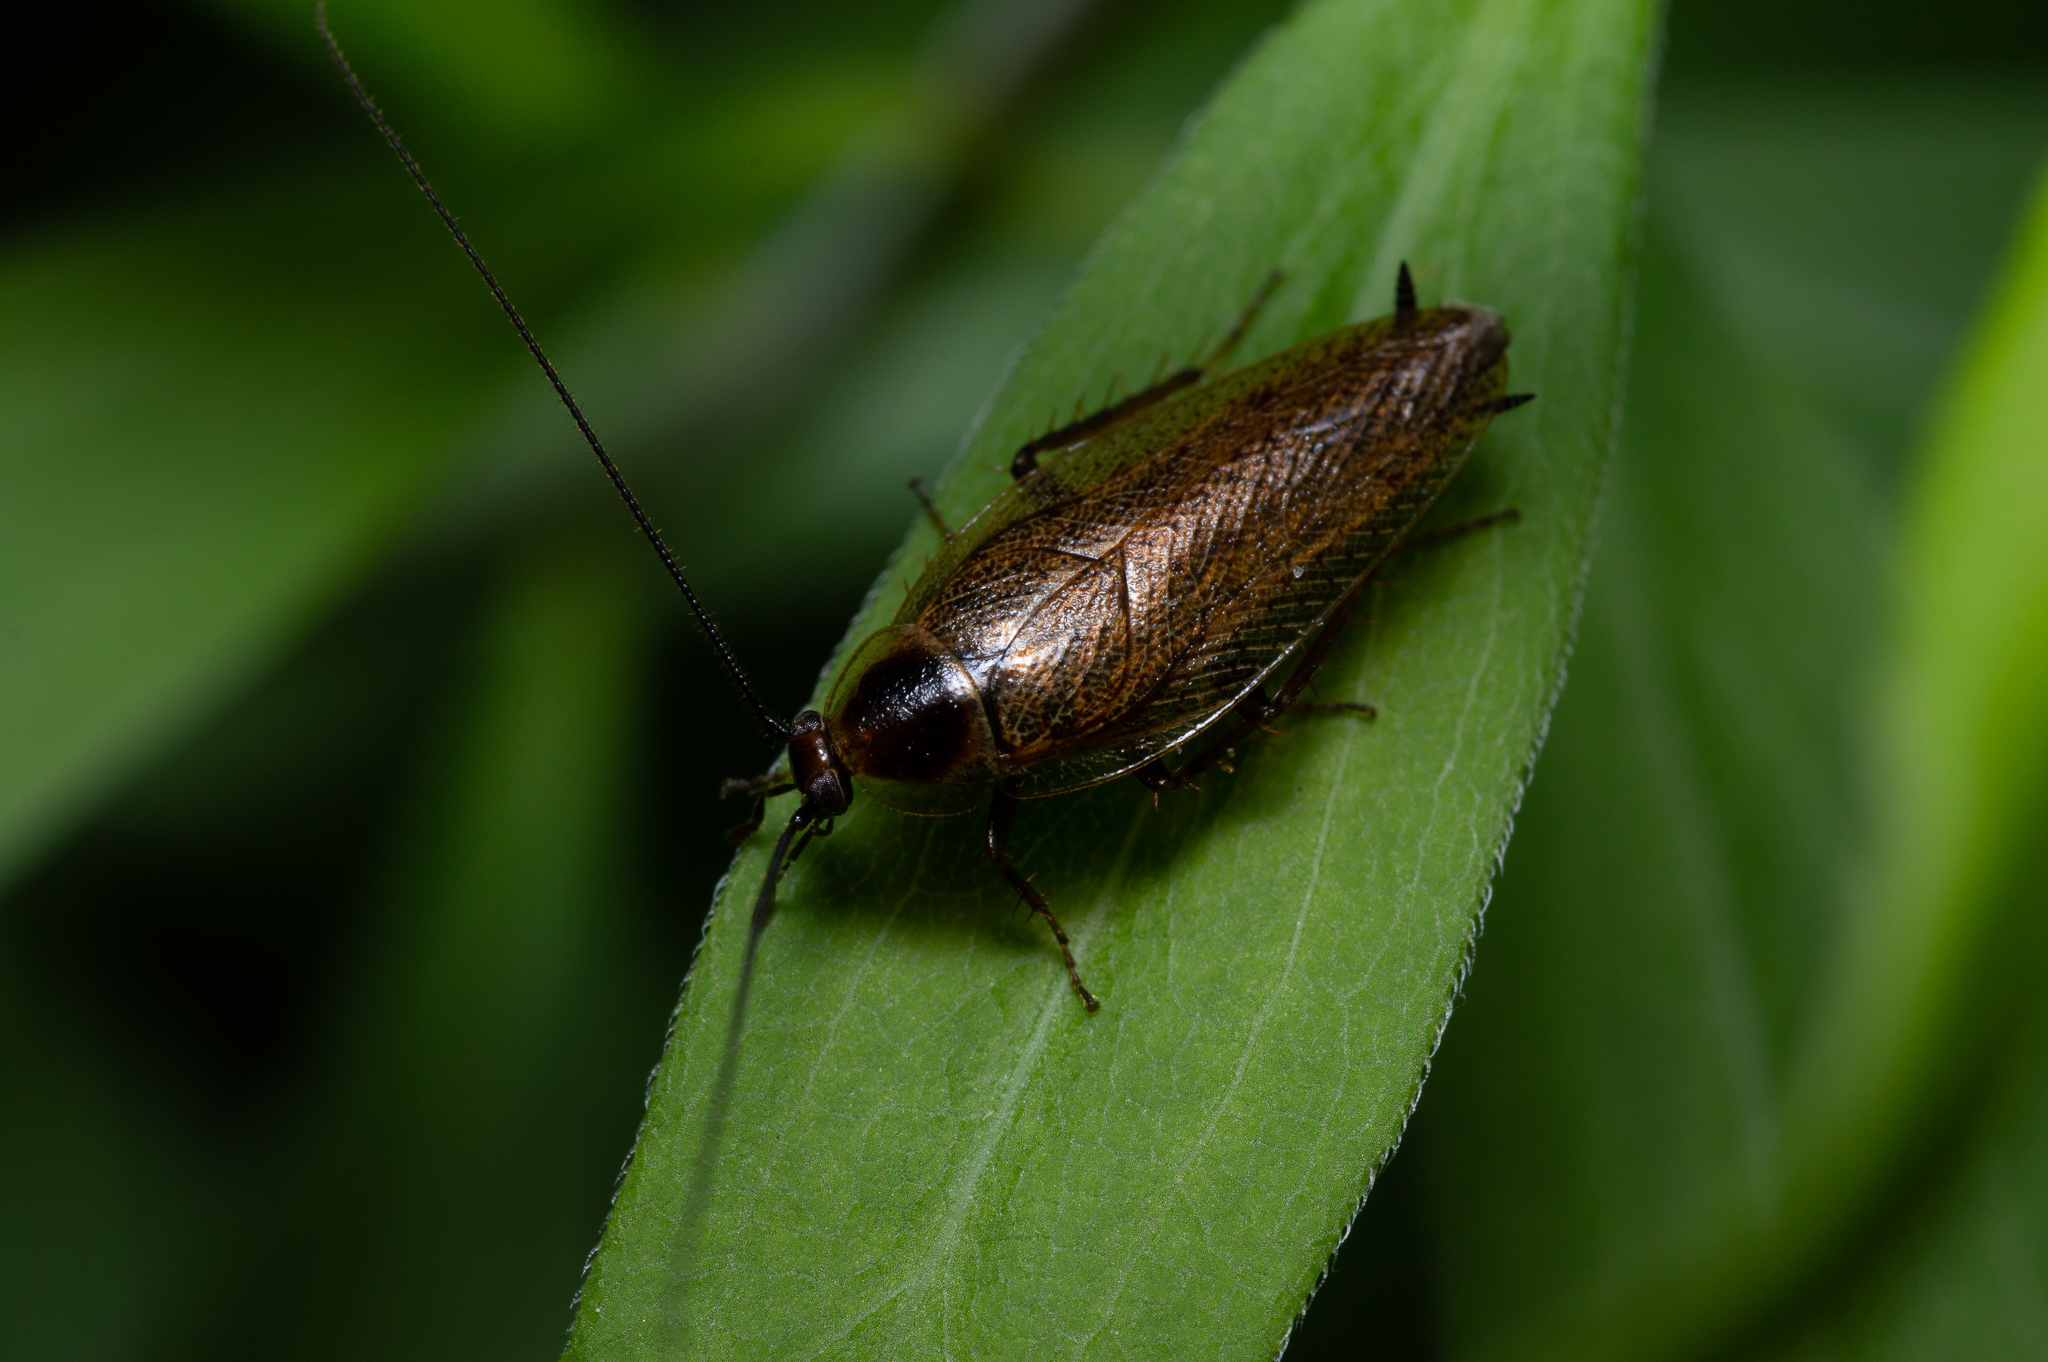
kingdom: Animalia
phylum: Arthropoda
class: Insecta
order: Blattodea
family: Ectobiidae
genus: Ectobius
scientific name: Ectobius lapponicus
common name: Dusky cockroach
